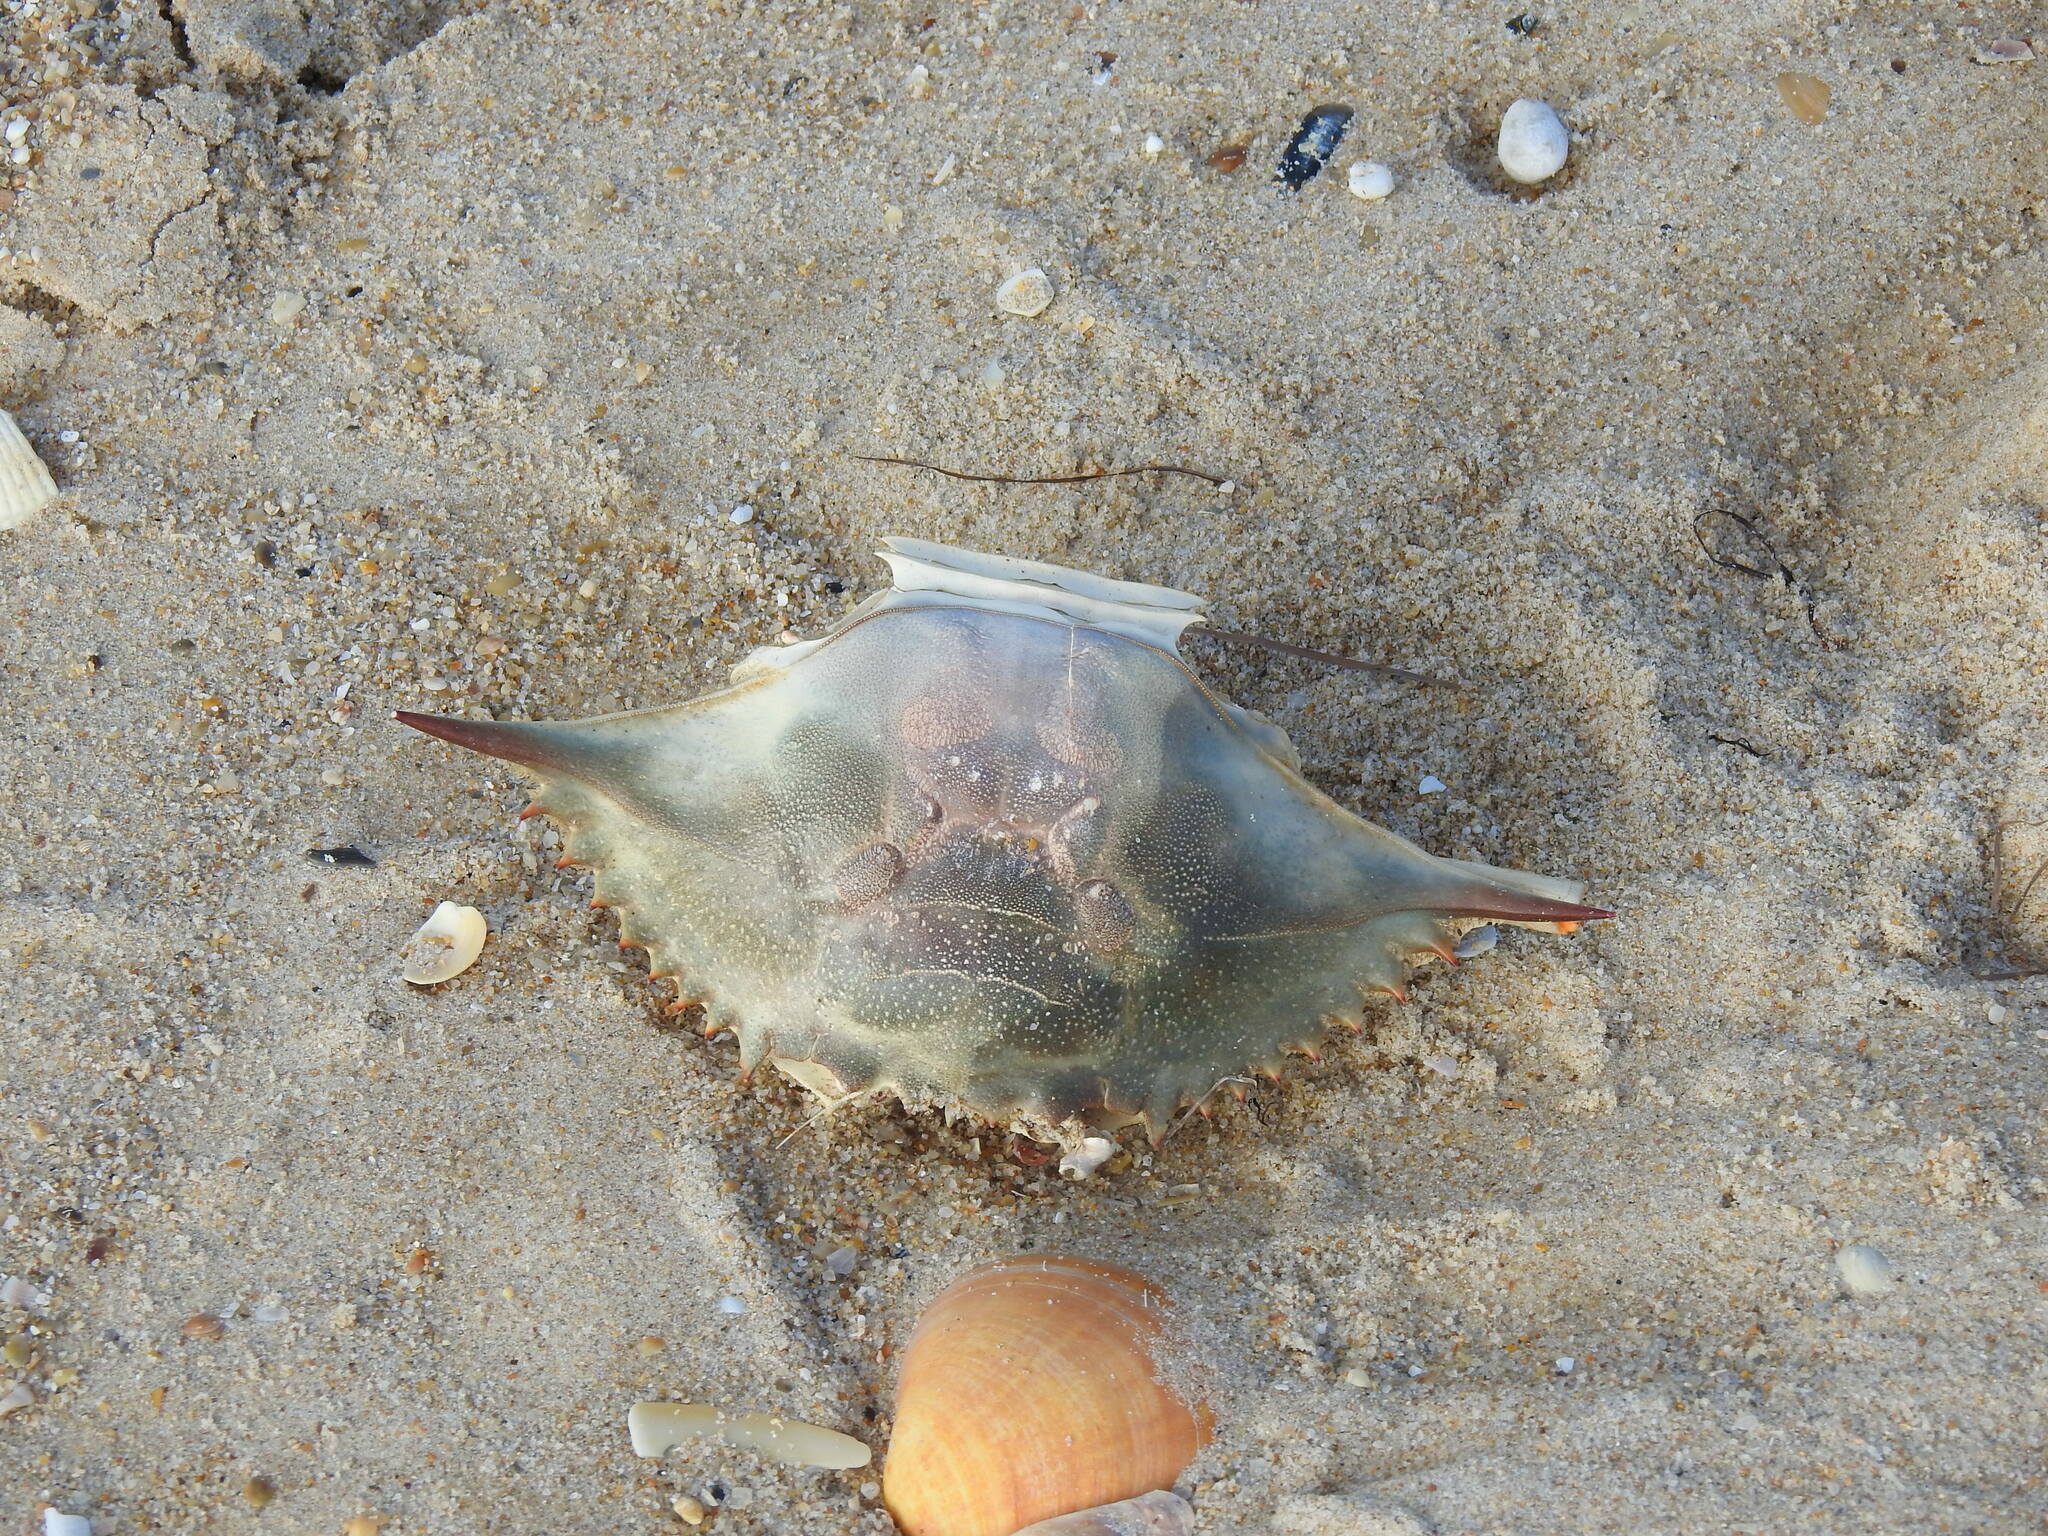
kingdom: Animalia
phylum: Arthropoda
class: Malacostraca
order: Decapoda
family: Portunidae
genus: Callinectes
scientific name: Callinectes sapidus
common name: Blue crab
